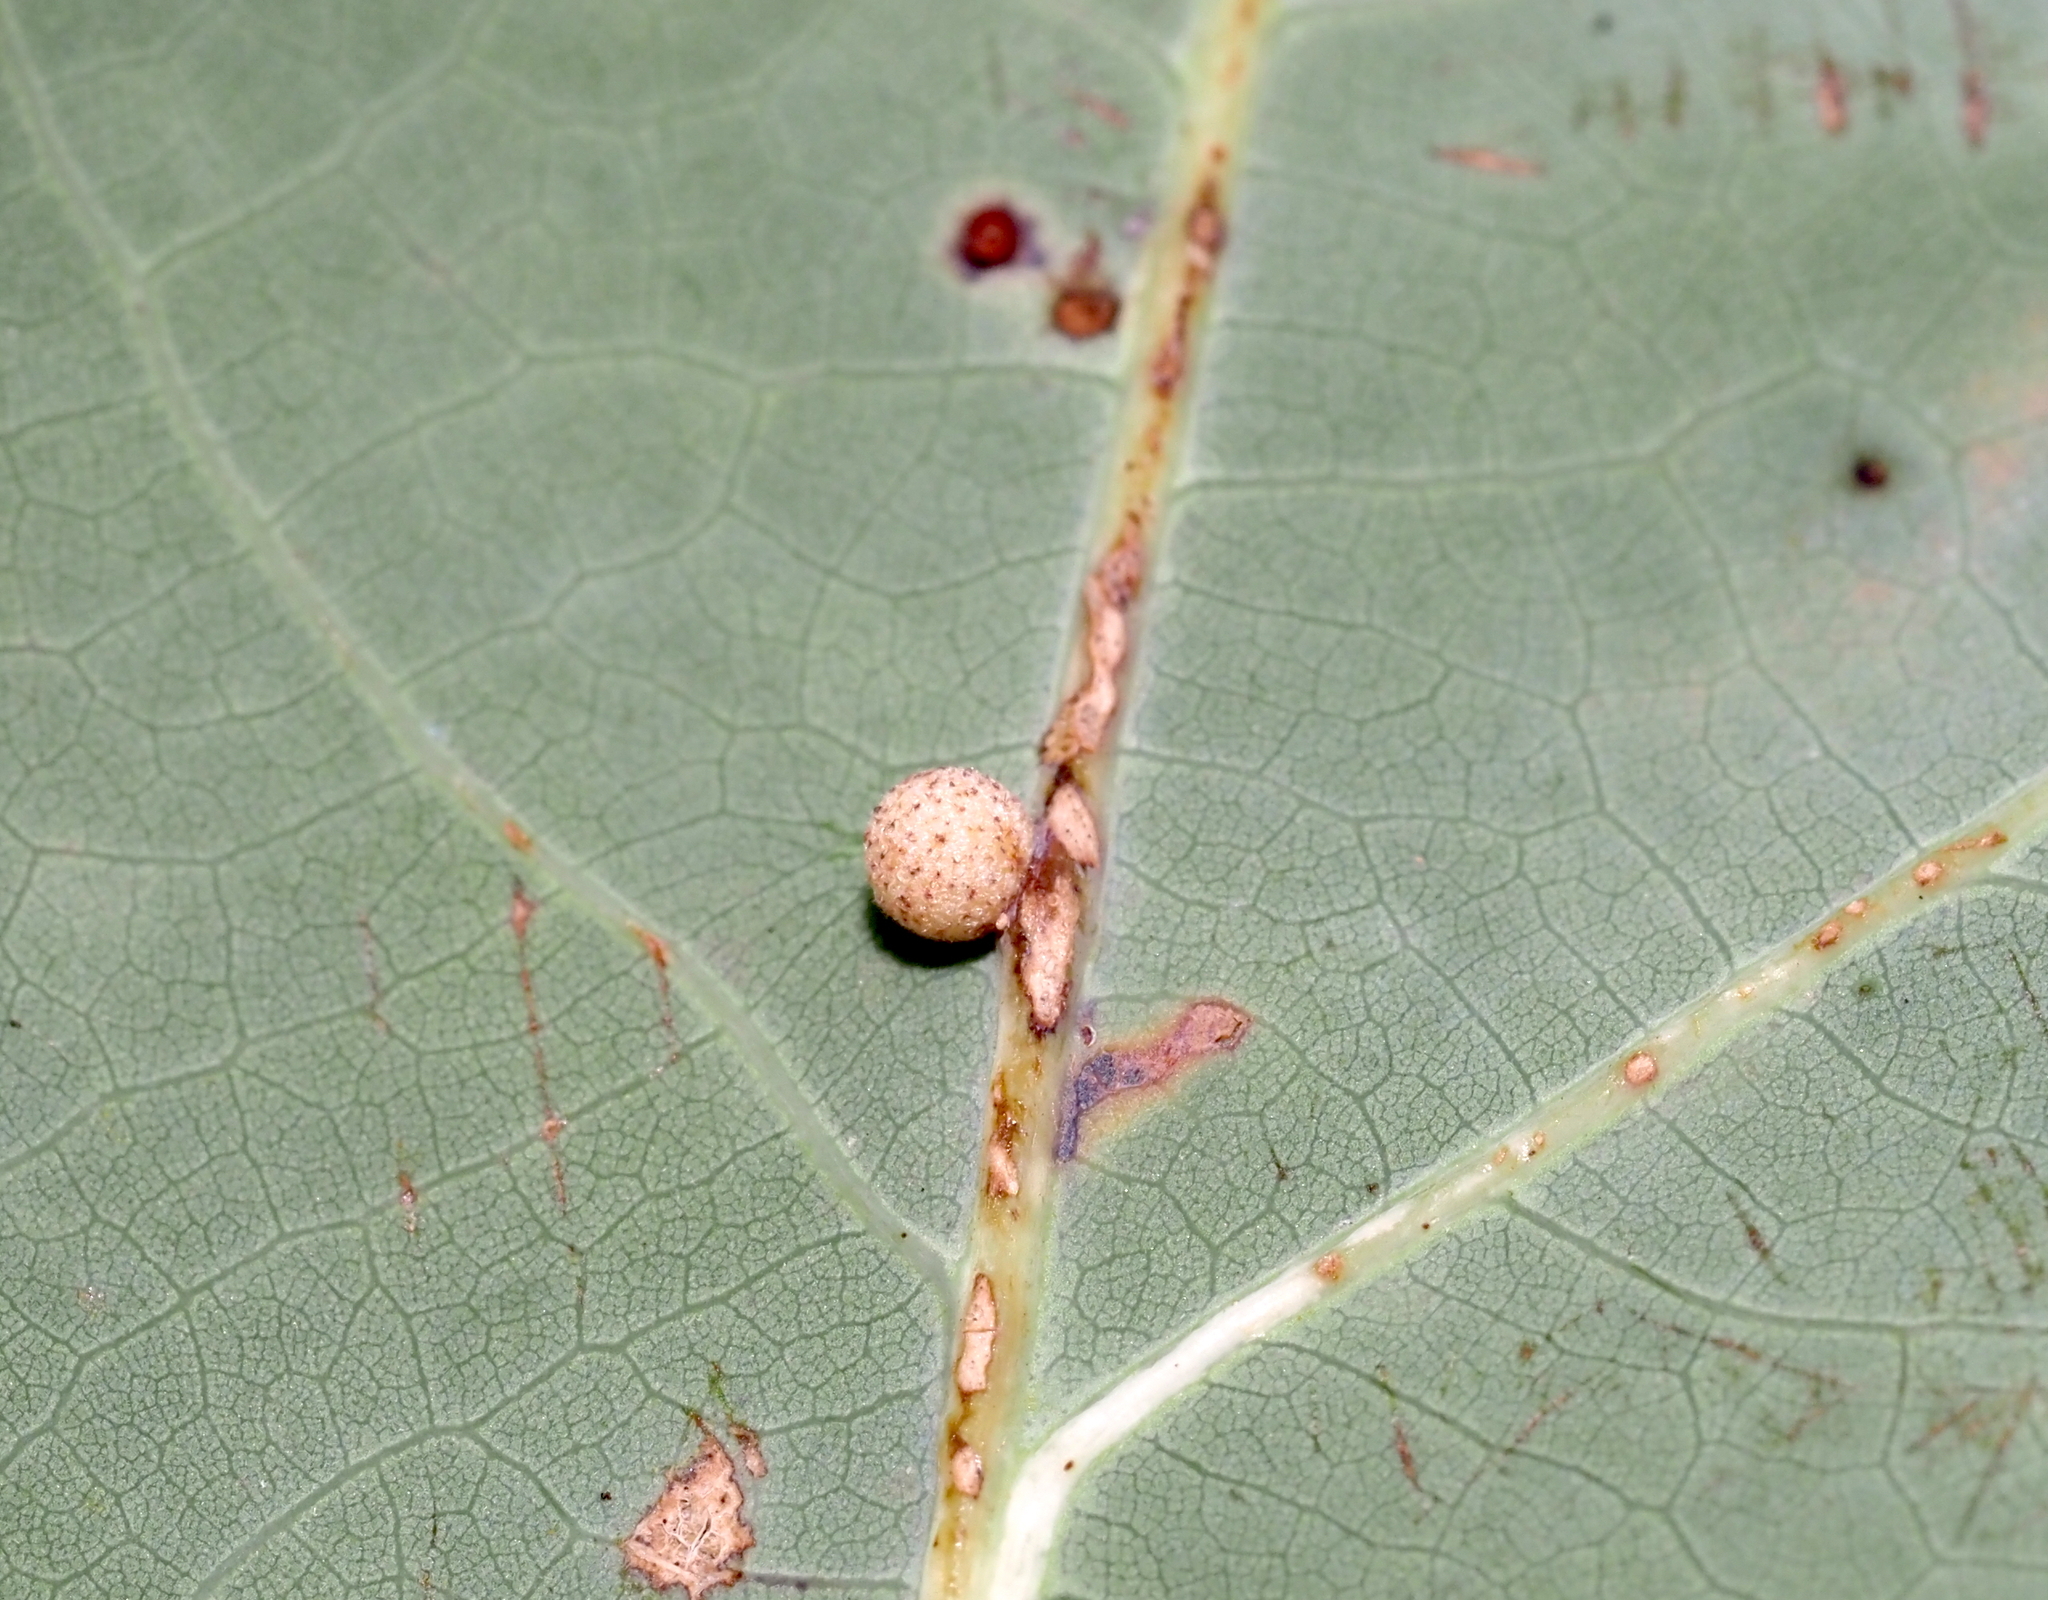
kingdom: Animalia
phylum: Arthropoda
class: Insecta
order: Hymenoptera
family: Cynipidae
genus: Philonix
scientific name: Philonix fulvicollis
